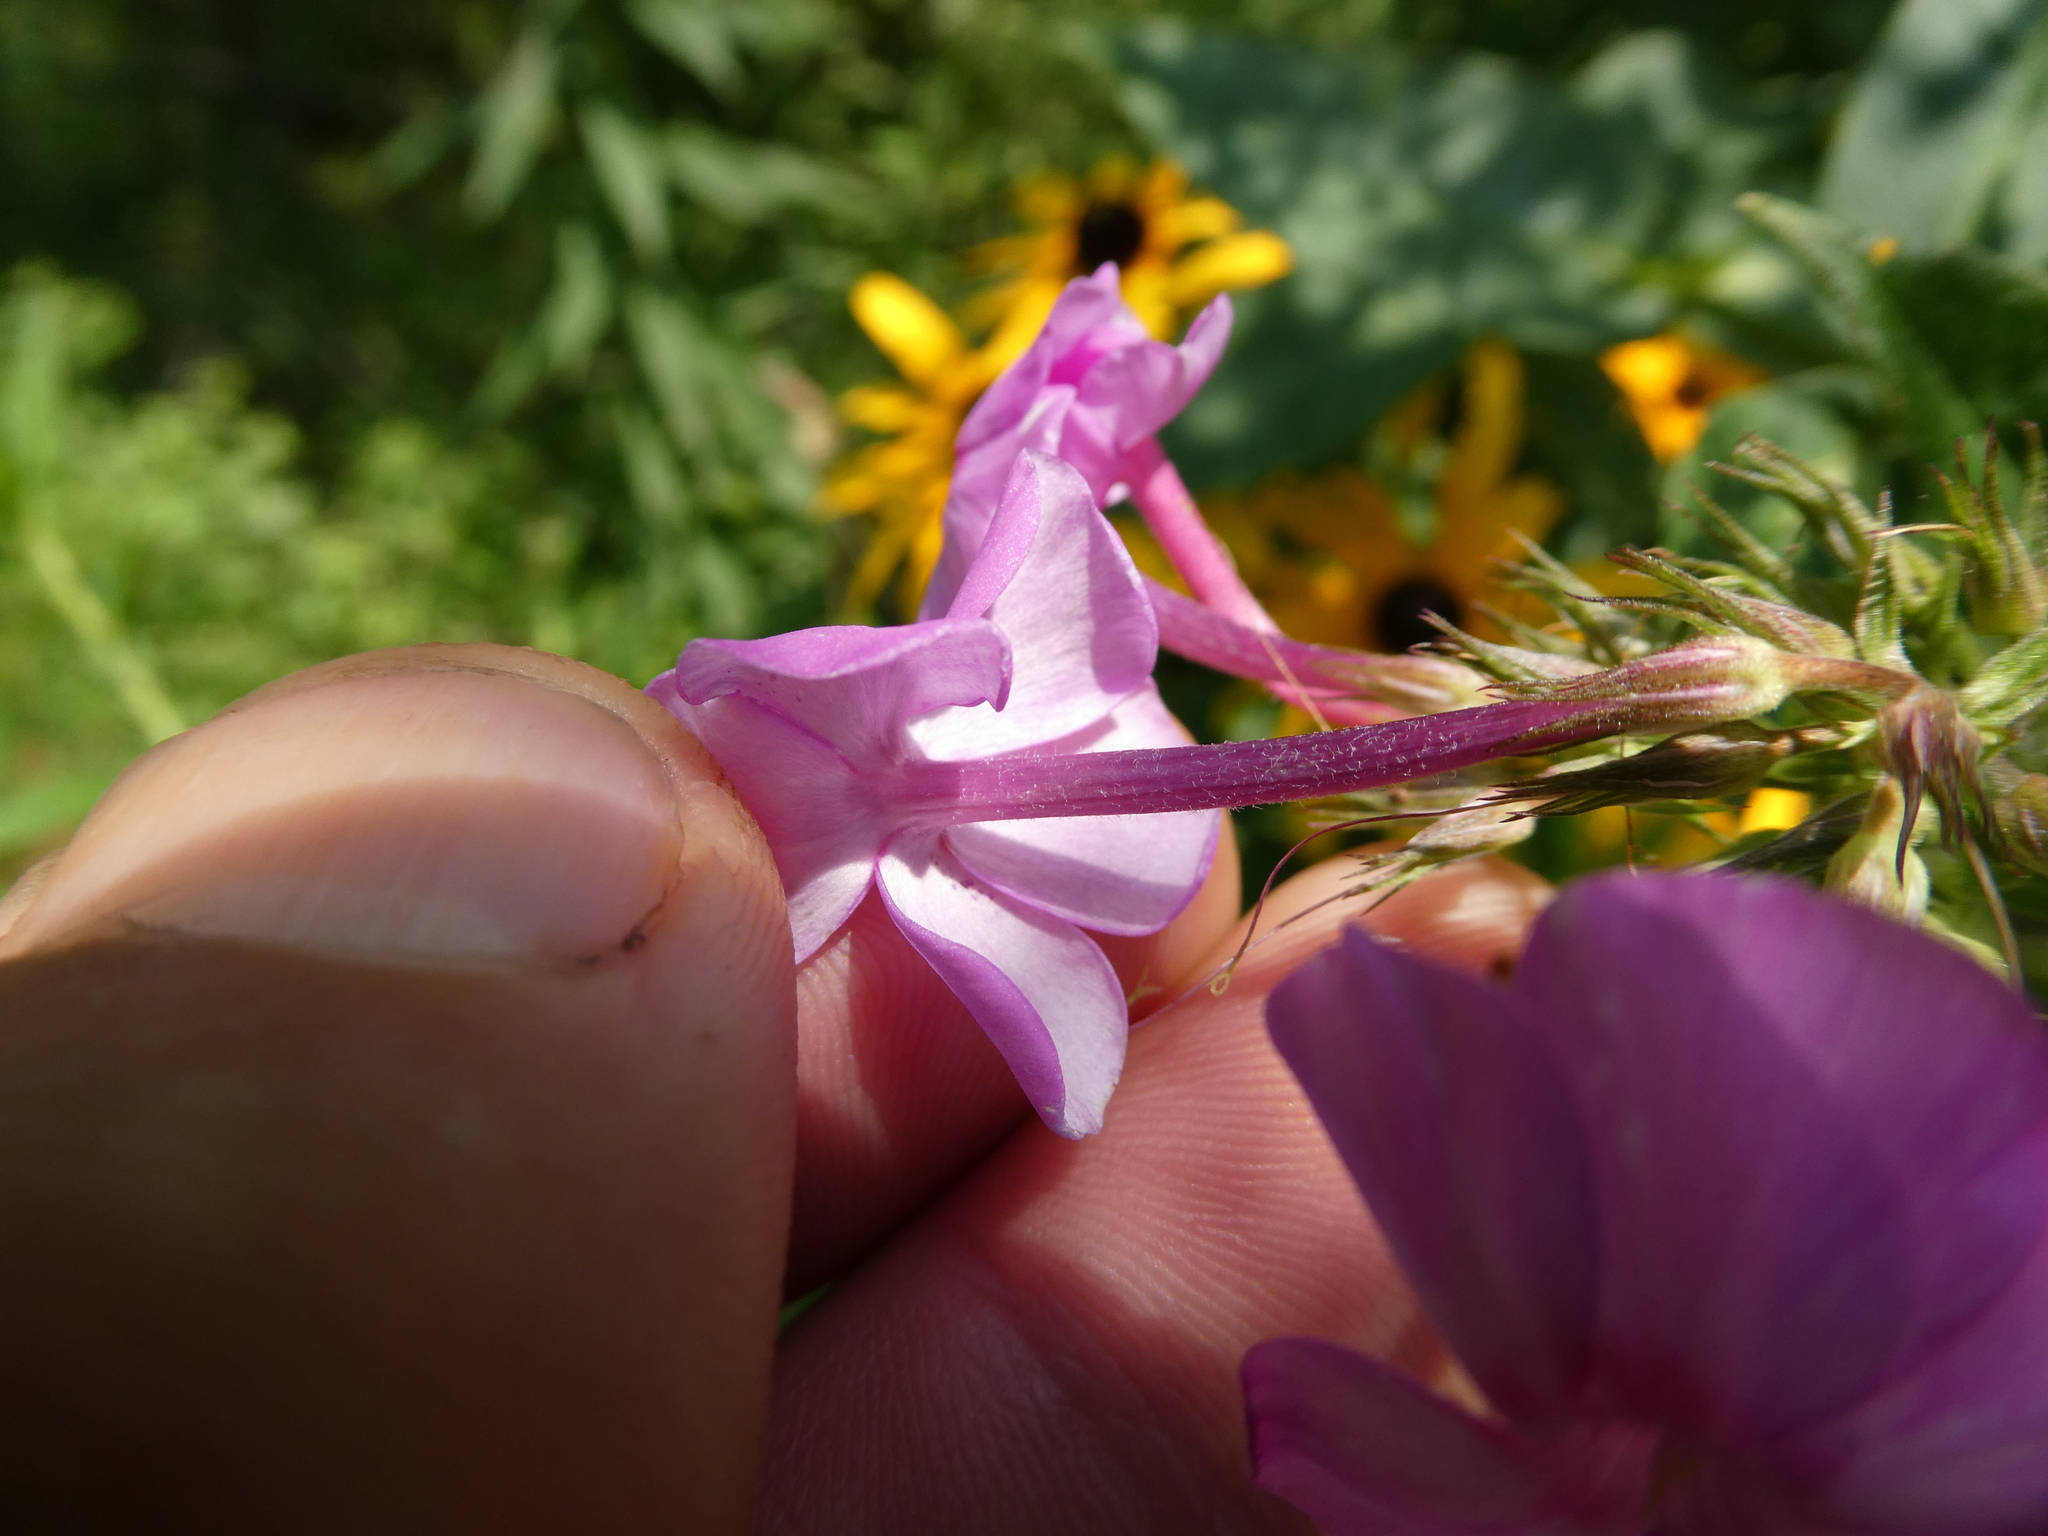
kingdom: Plantae
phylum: Tracheophyta
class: Magnoliopsida
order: Ericales
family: Polemoniaceae
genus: Phlox
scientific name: Phlox paniculata
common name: Fall phlox
